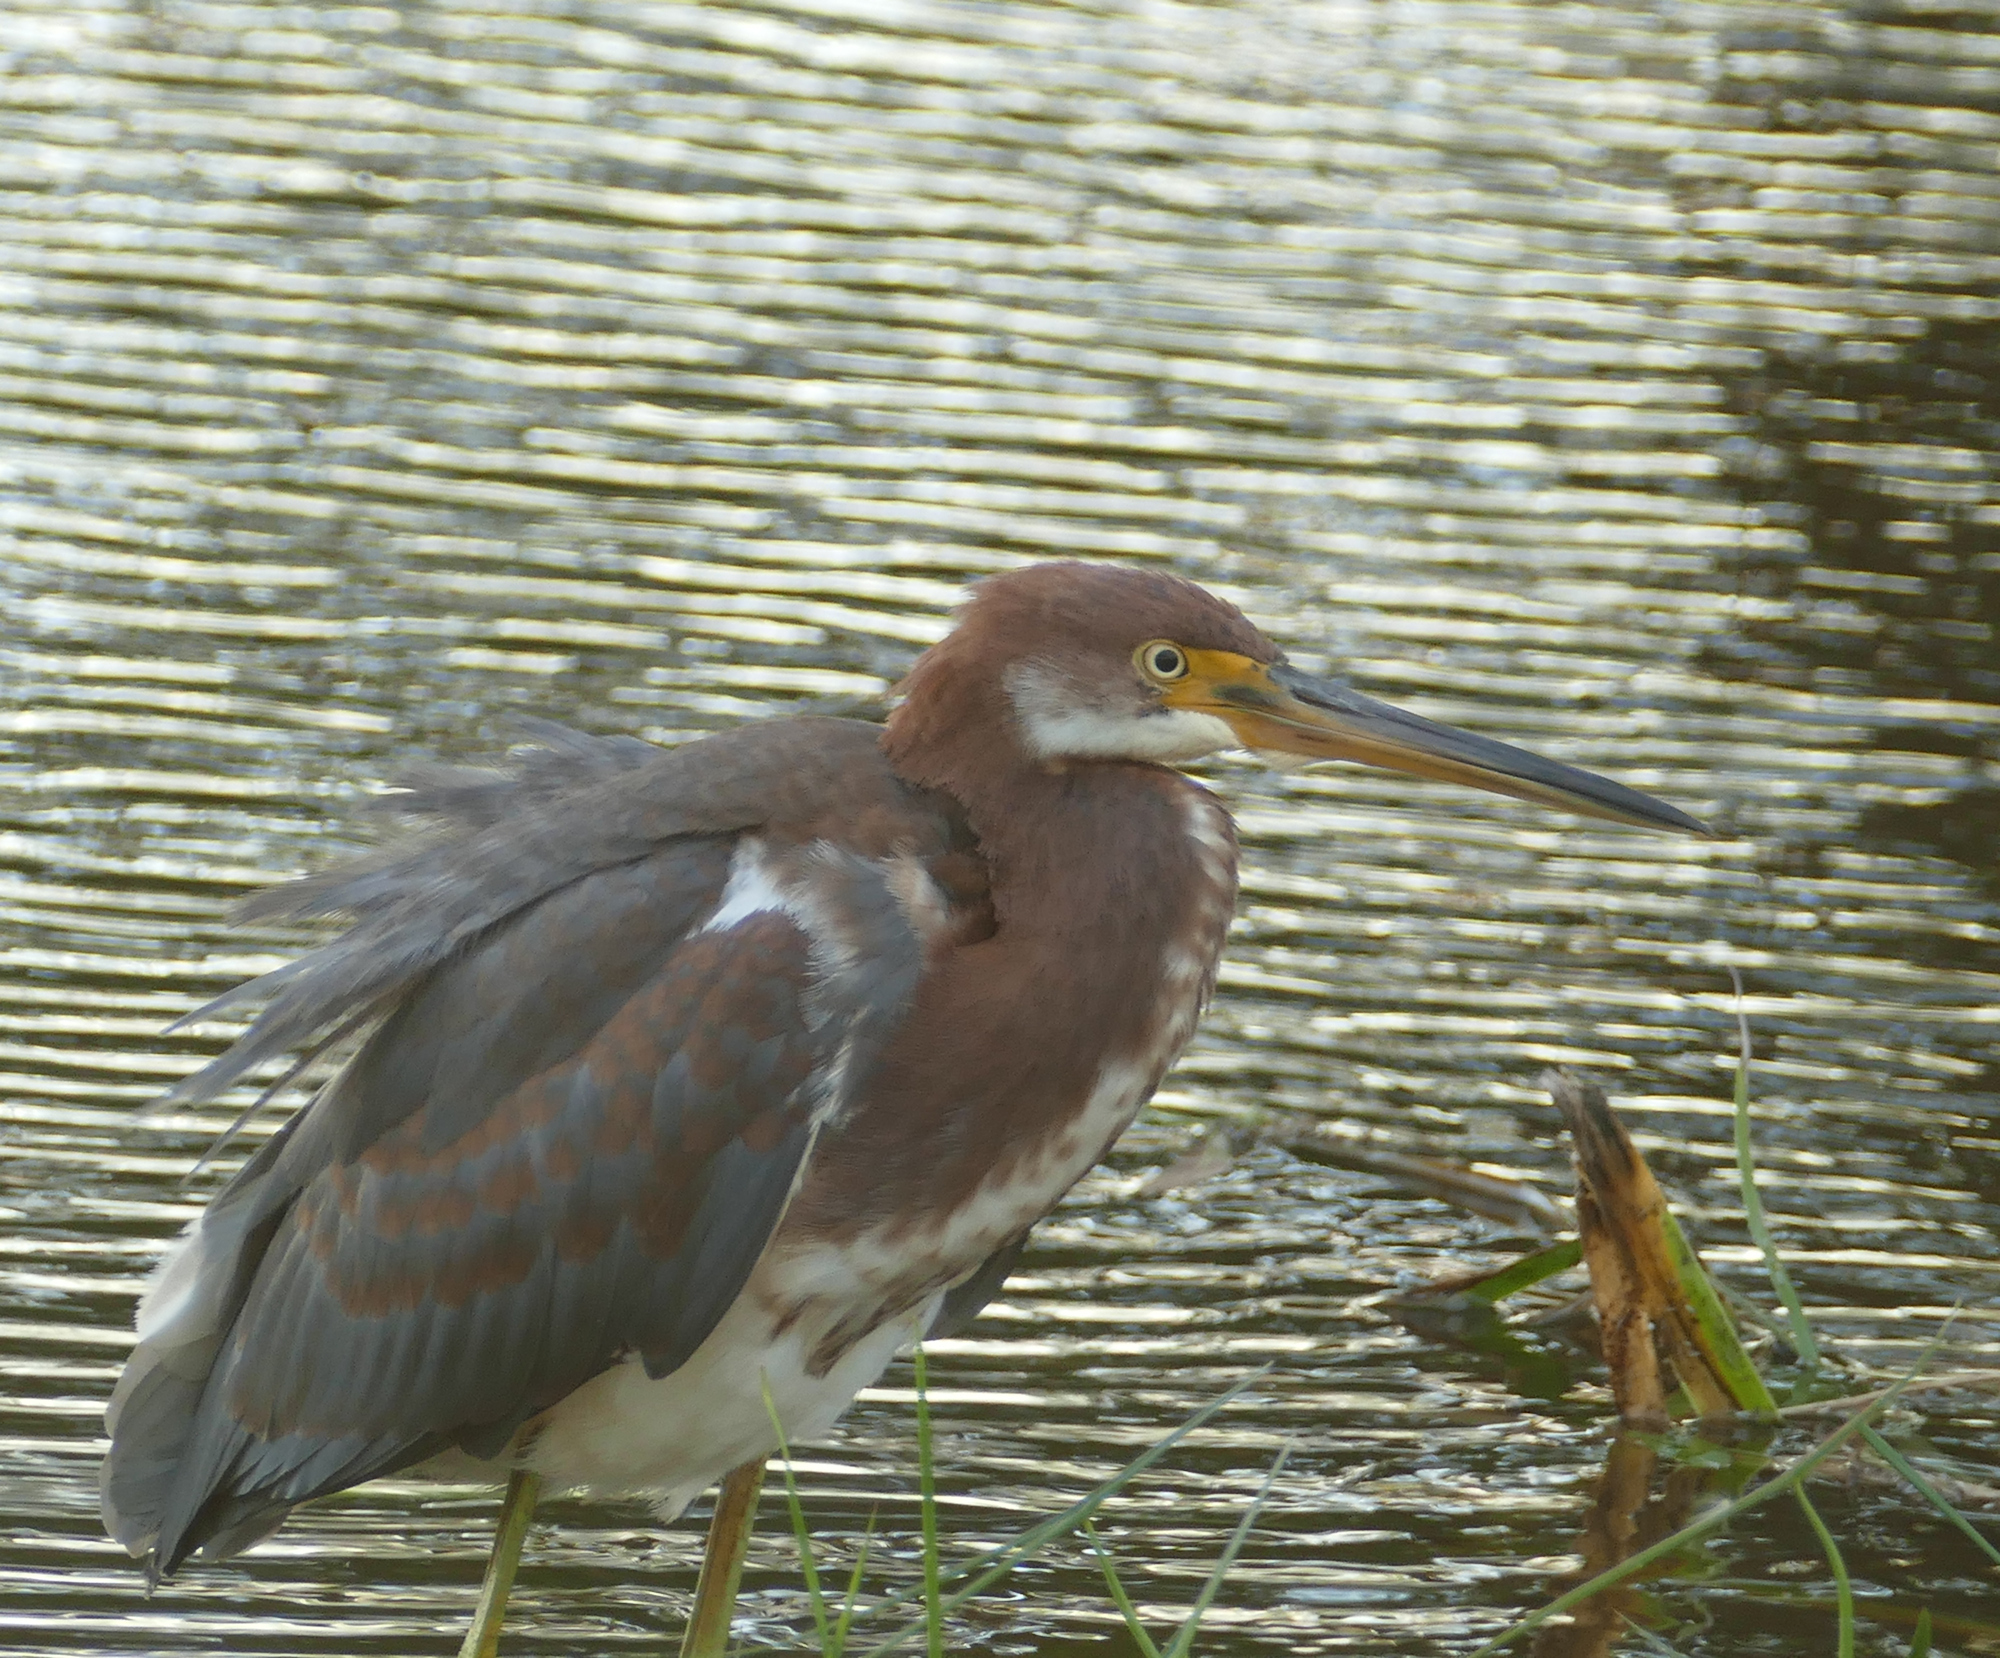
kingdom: Animalia
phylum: Chordata
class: Aves
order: Pelecaniformes
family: Ardeidae
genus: Egretta
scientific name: Egretta tricolor
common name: Tricolored heron
